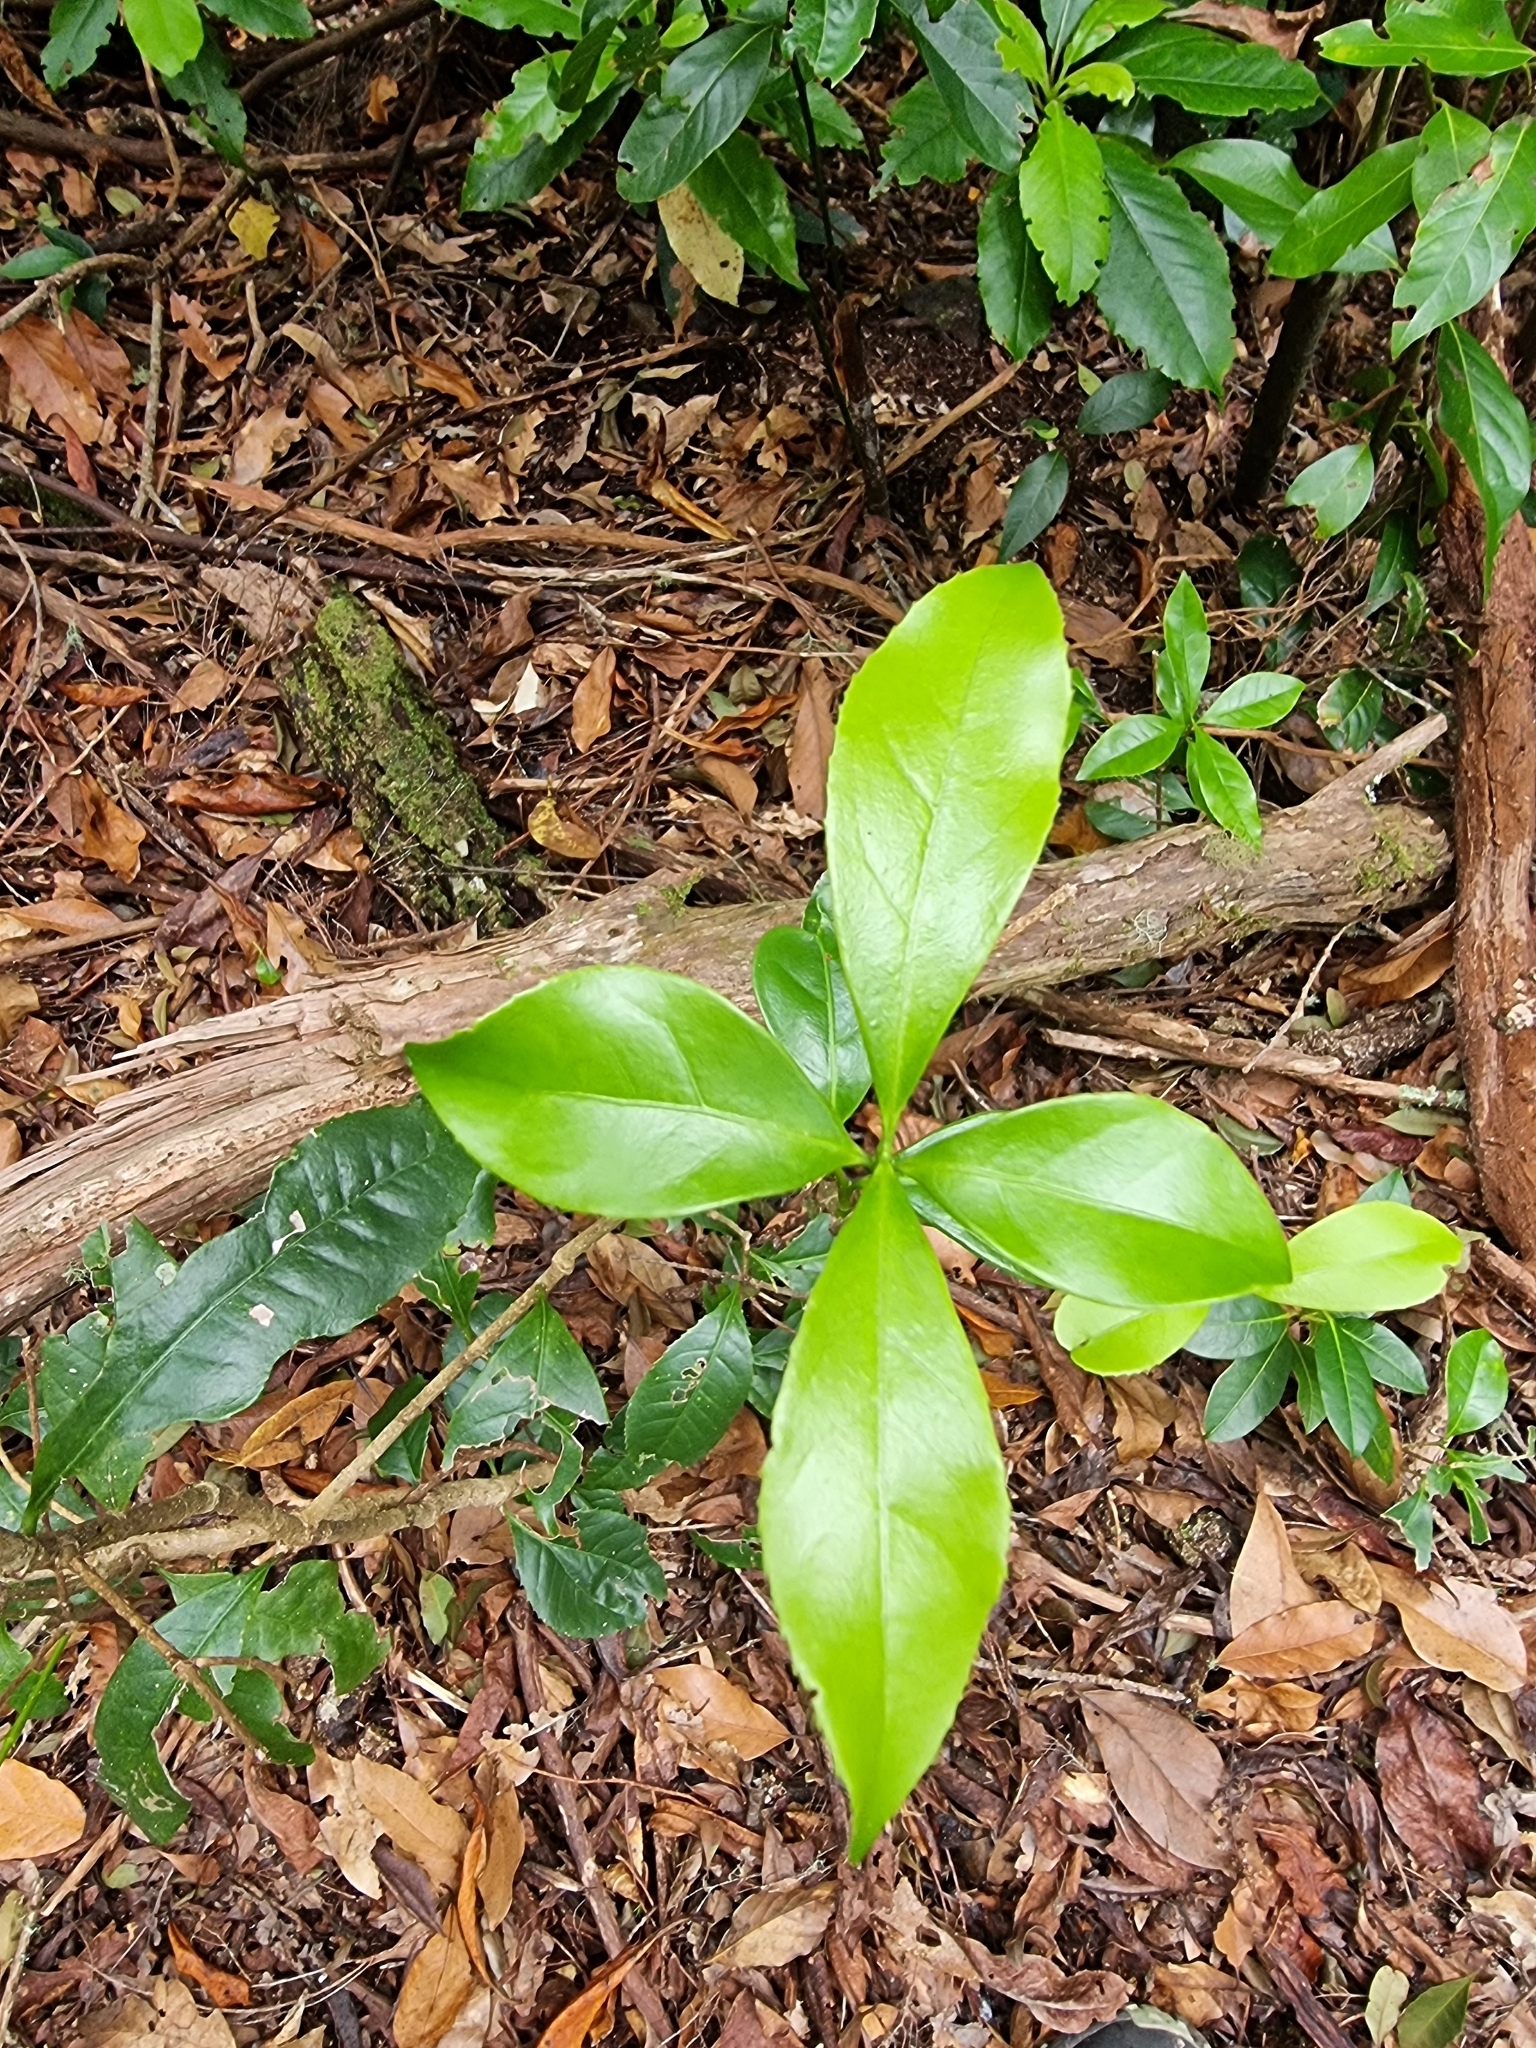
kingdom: Plantae
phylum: Tracheophyta
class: Magnoliopsida
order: Lamiales
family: Oleaceae
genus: Picconia
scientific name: Picconia excelsa
